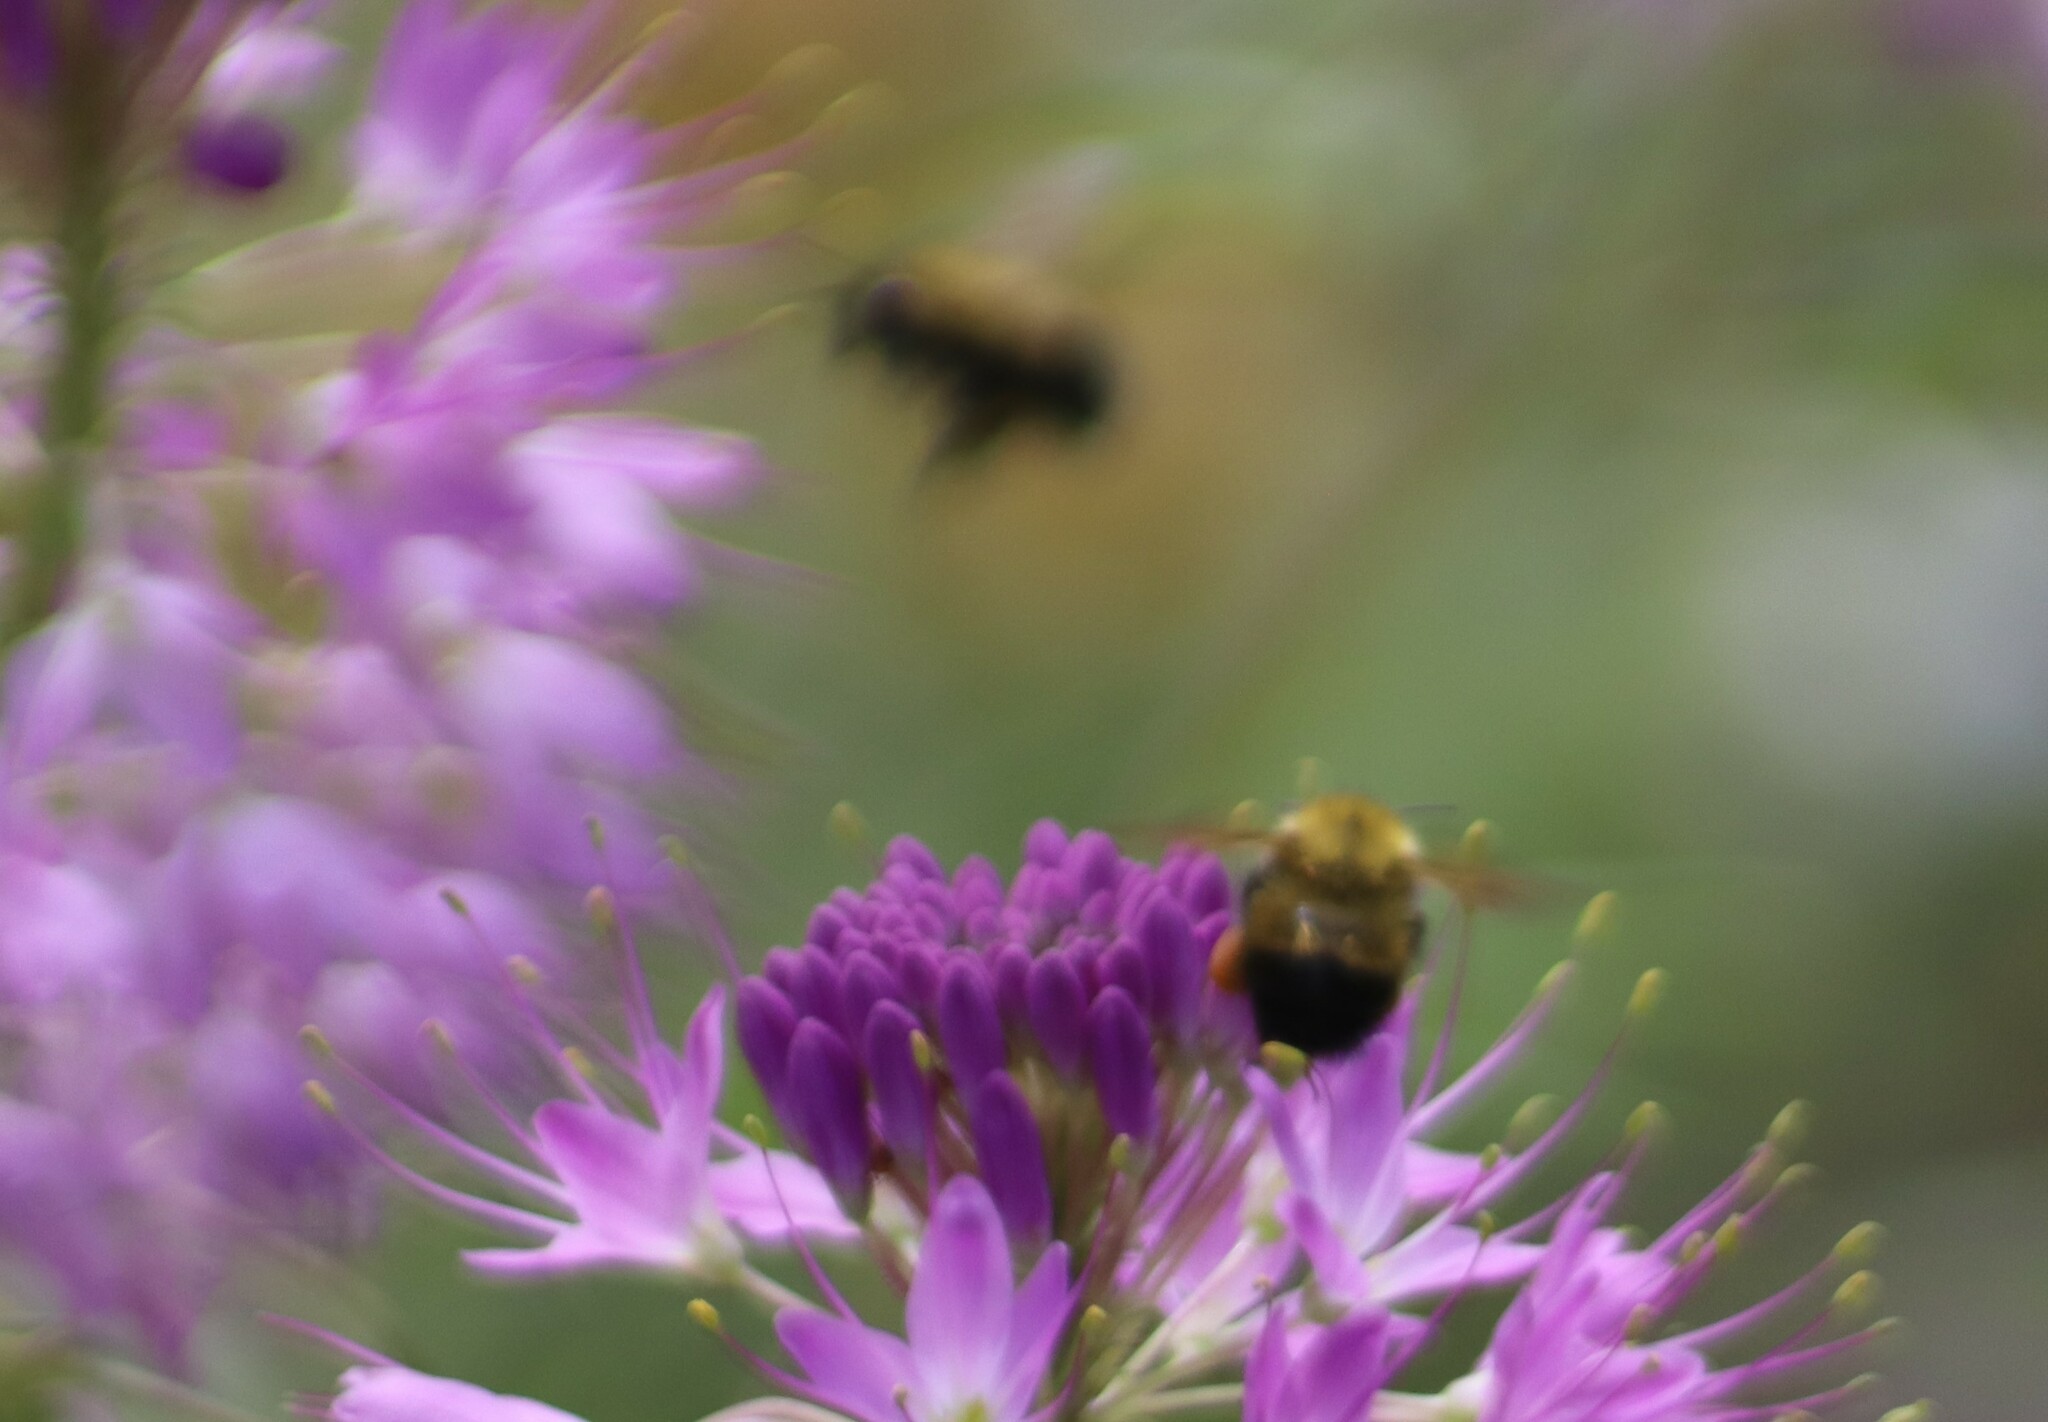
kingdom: Animalia
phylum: Arthropoda
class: Insecta
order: Hymenoptera
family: Apidae
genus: Bombus
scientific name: Bombus perplexus
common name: Confusing bumble bee
